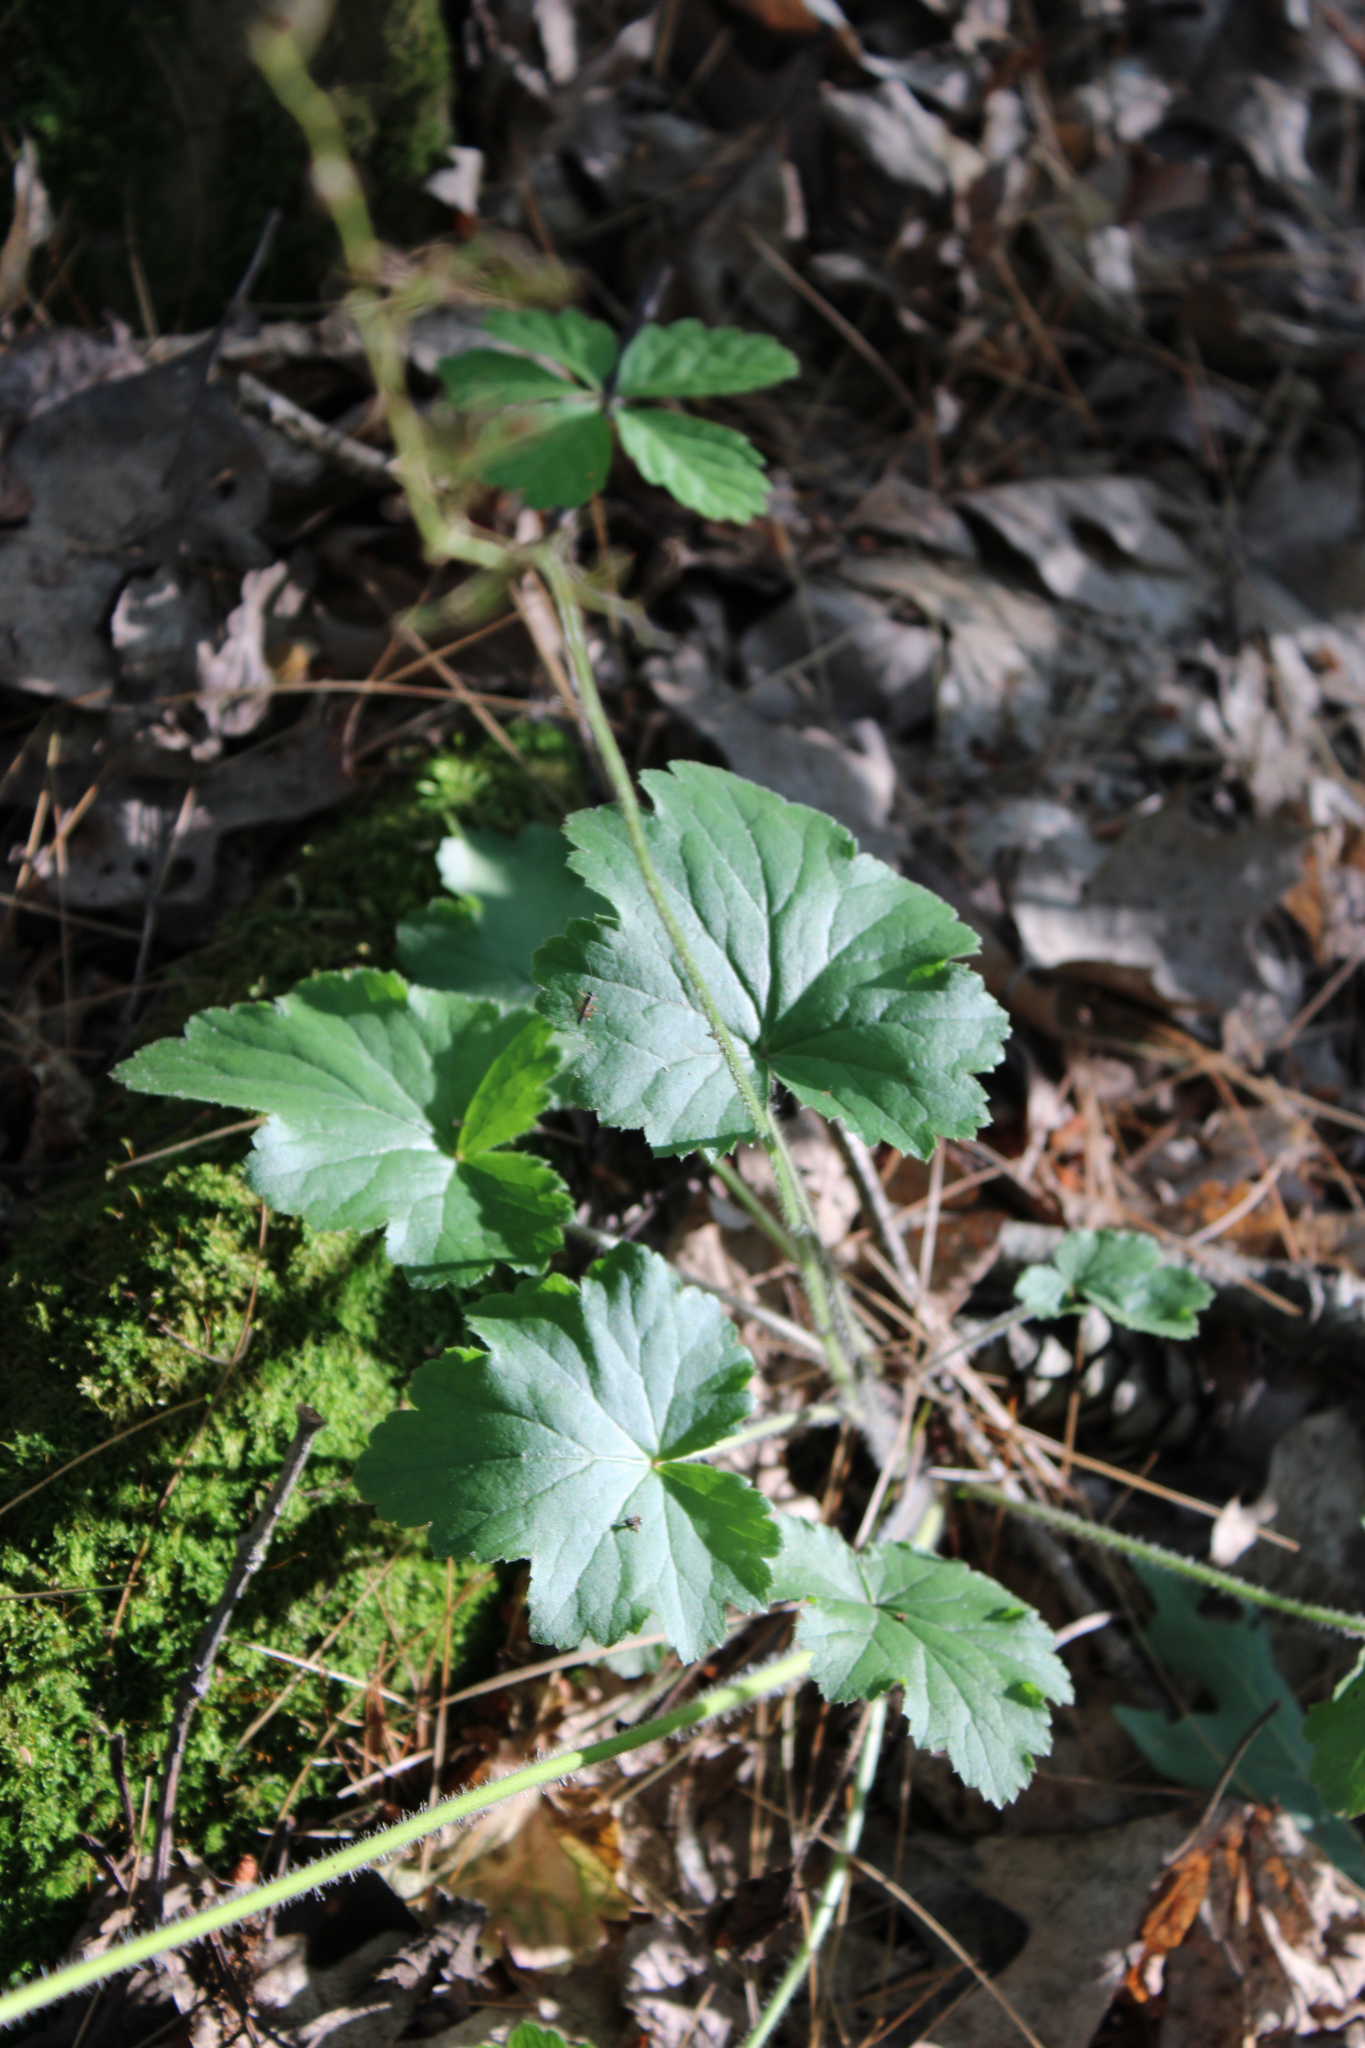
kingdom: Plantae
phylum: Tracheophyta
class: Magnoliopsida
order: Saxifragales
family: Saxifragaceae
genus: Heuchera
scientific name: Heuchera richardsonii
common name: Richardson's alumroot
